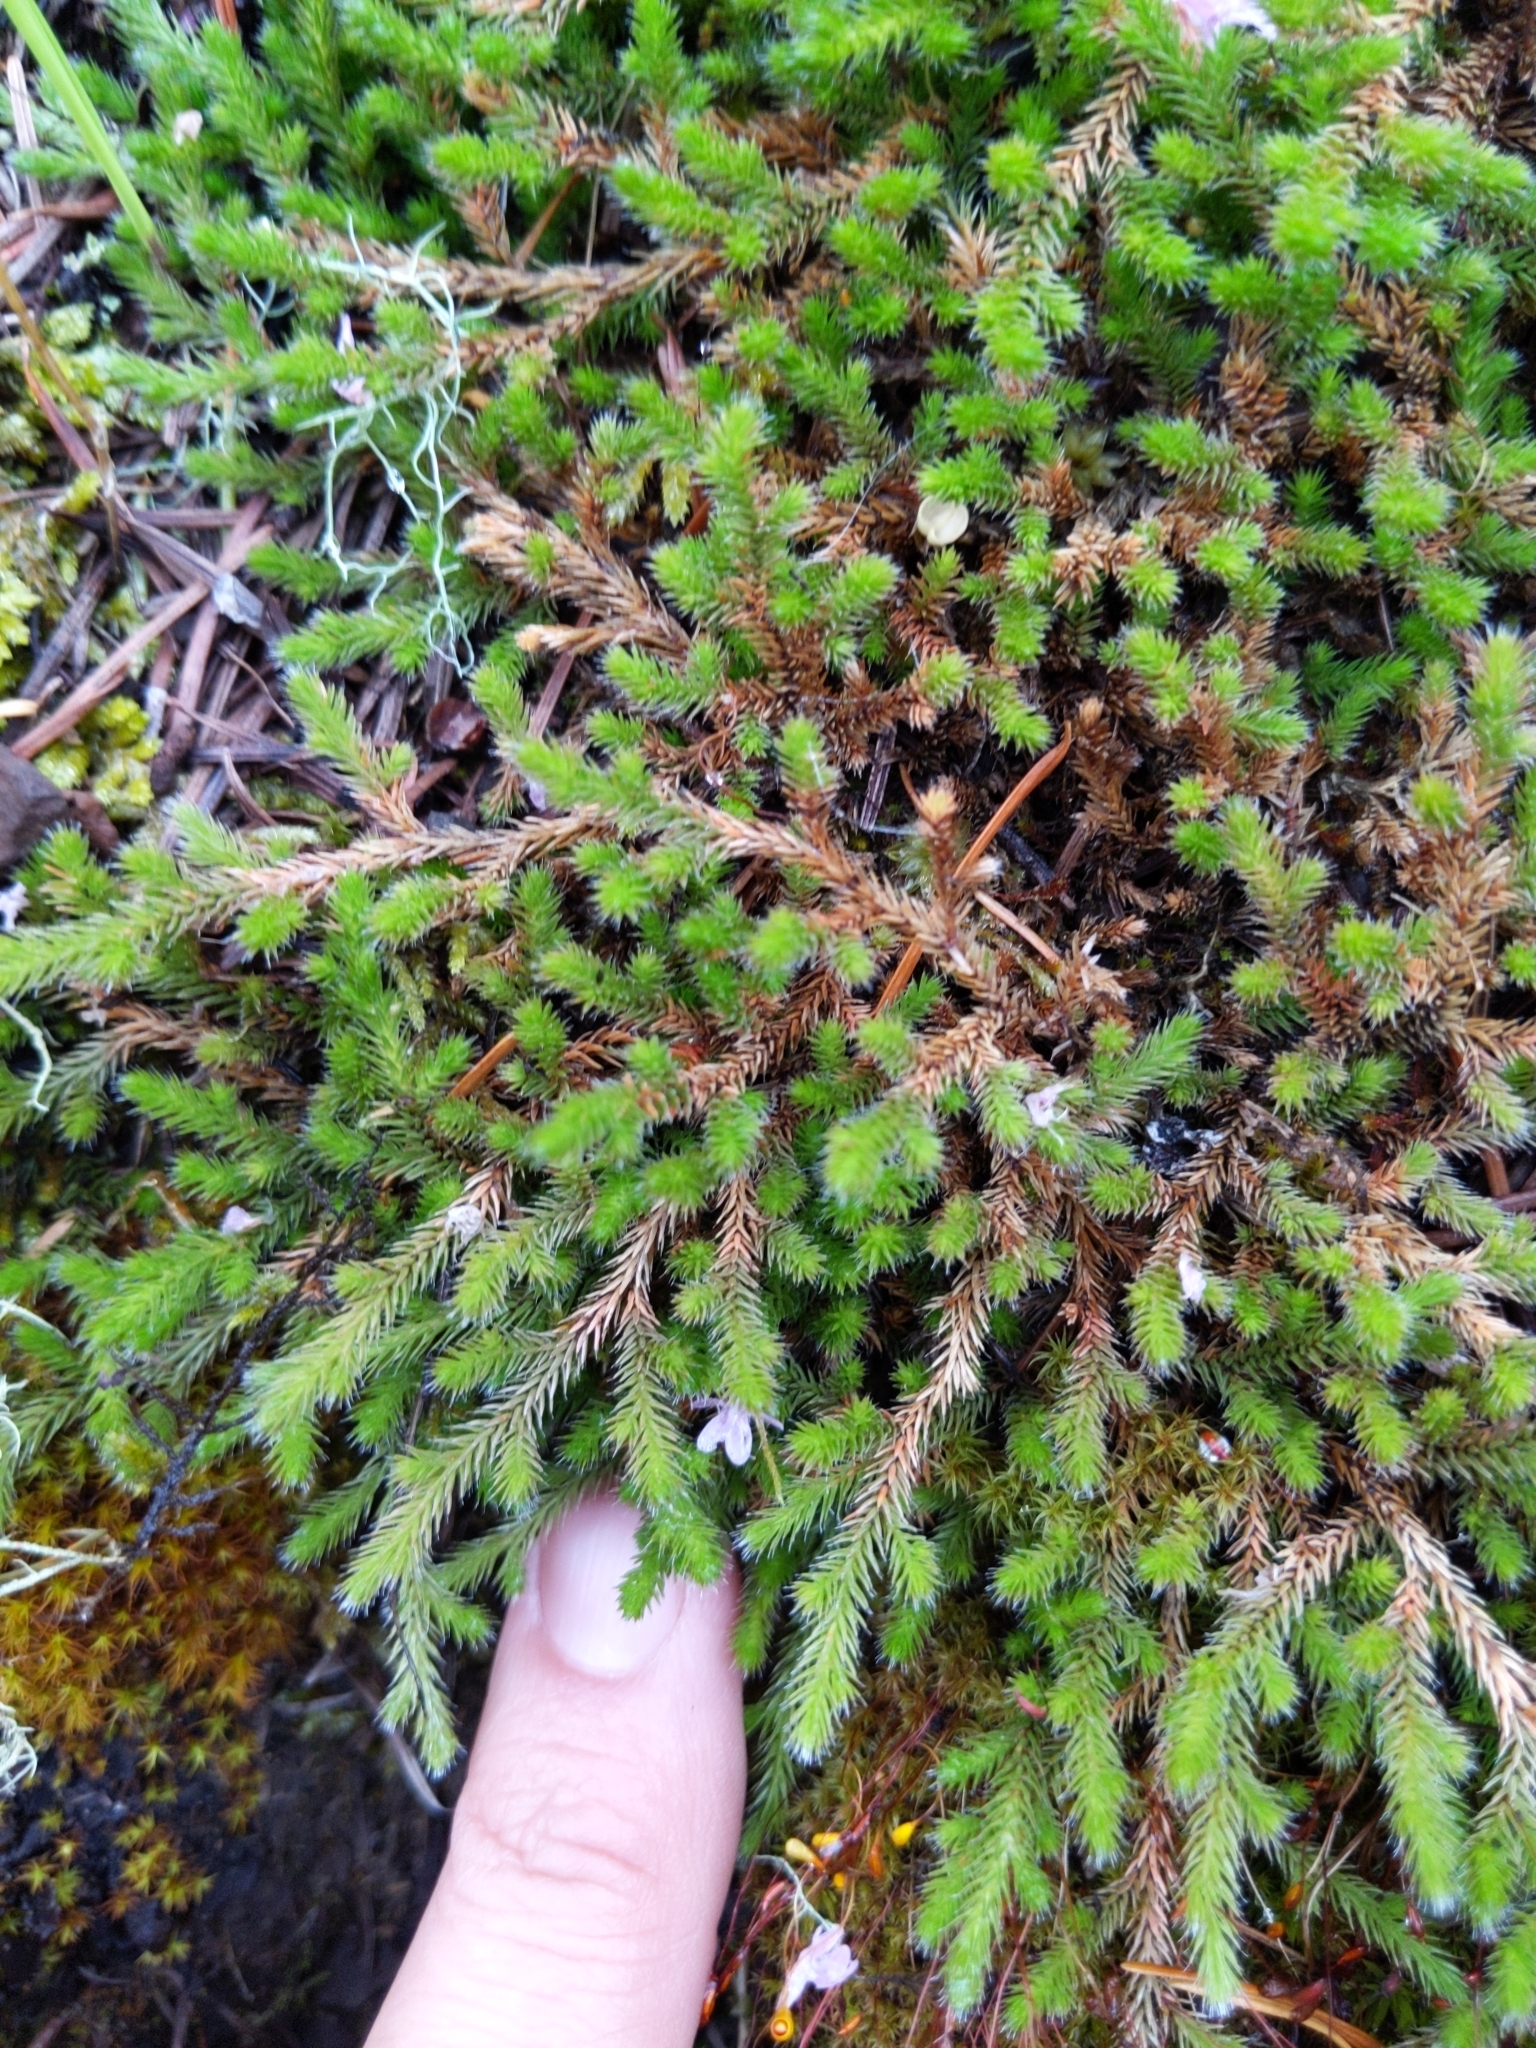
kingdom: Plantae
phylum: Tracheophyta
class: Lycopodiopsida
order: Selaginellales
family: Selaginellaceae
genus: Selaginella
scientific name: Selaginella wallacei
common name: Wallace's selaginella
